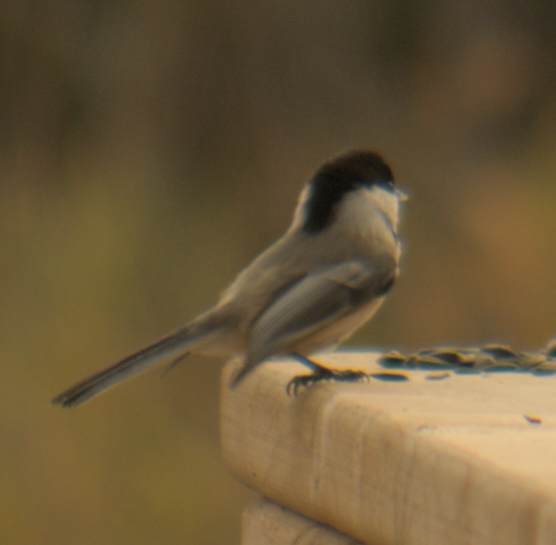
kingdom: Animalia
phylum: Chordata
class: Aves
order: Passeriformes
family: Paridae
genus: Poecile
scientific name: Poecile atricapillus
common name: Black-capped chickadee
